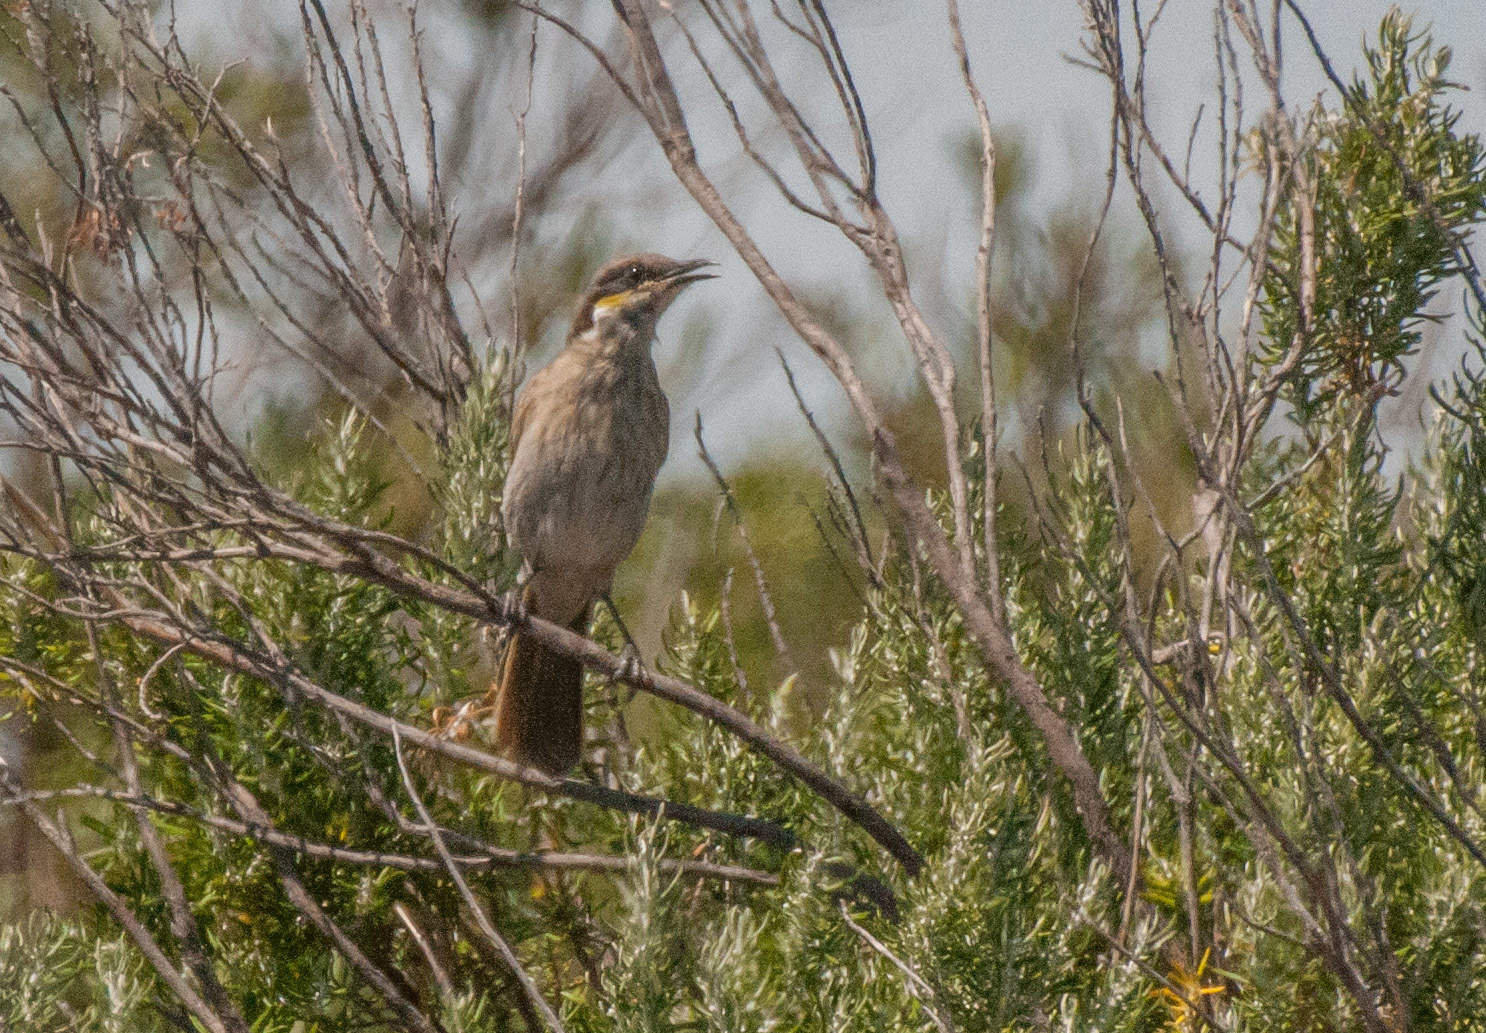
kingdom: Animalia
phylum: Chordata
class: Aves
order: Passeriformes
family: Meliphagidae
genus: Gavicalis
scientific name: Gavicalis virescens
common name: Singing honeyeater
